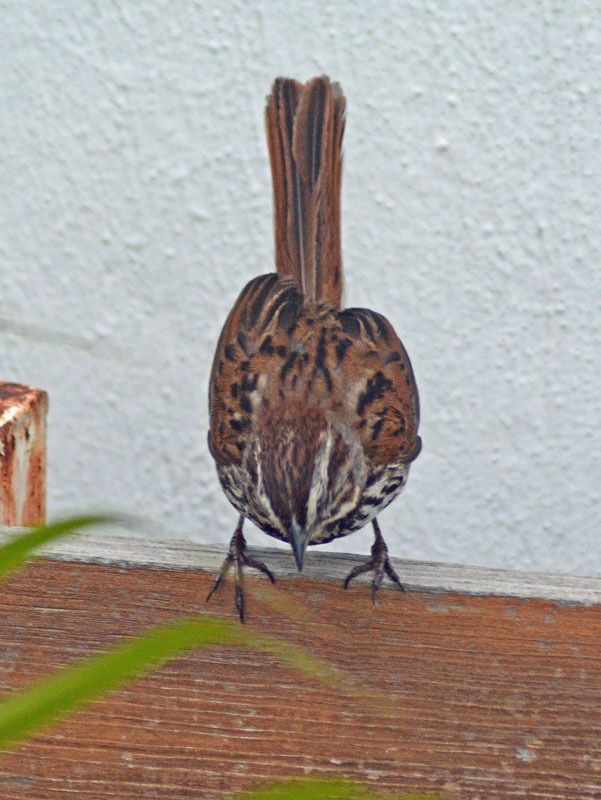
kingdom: Animalia
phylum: Chordata
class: Aves
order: Passeriformes
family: Passerellidae
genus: Melospiza
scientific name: Melospiza melodia
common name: Song sparrow
